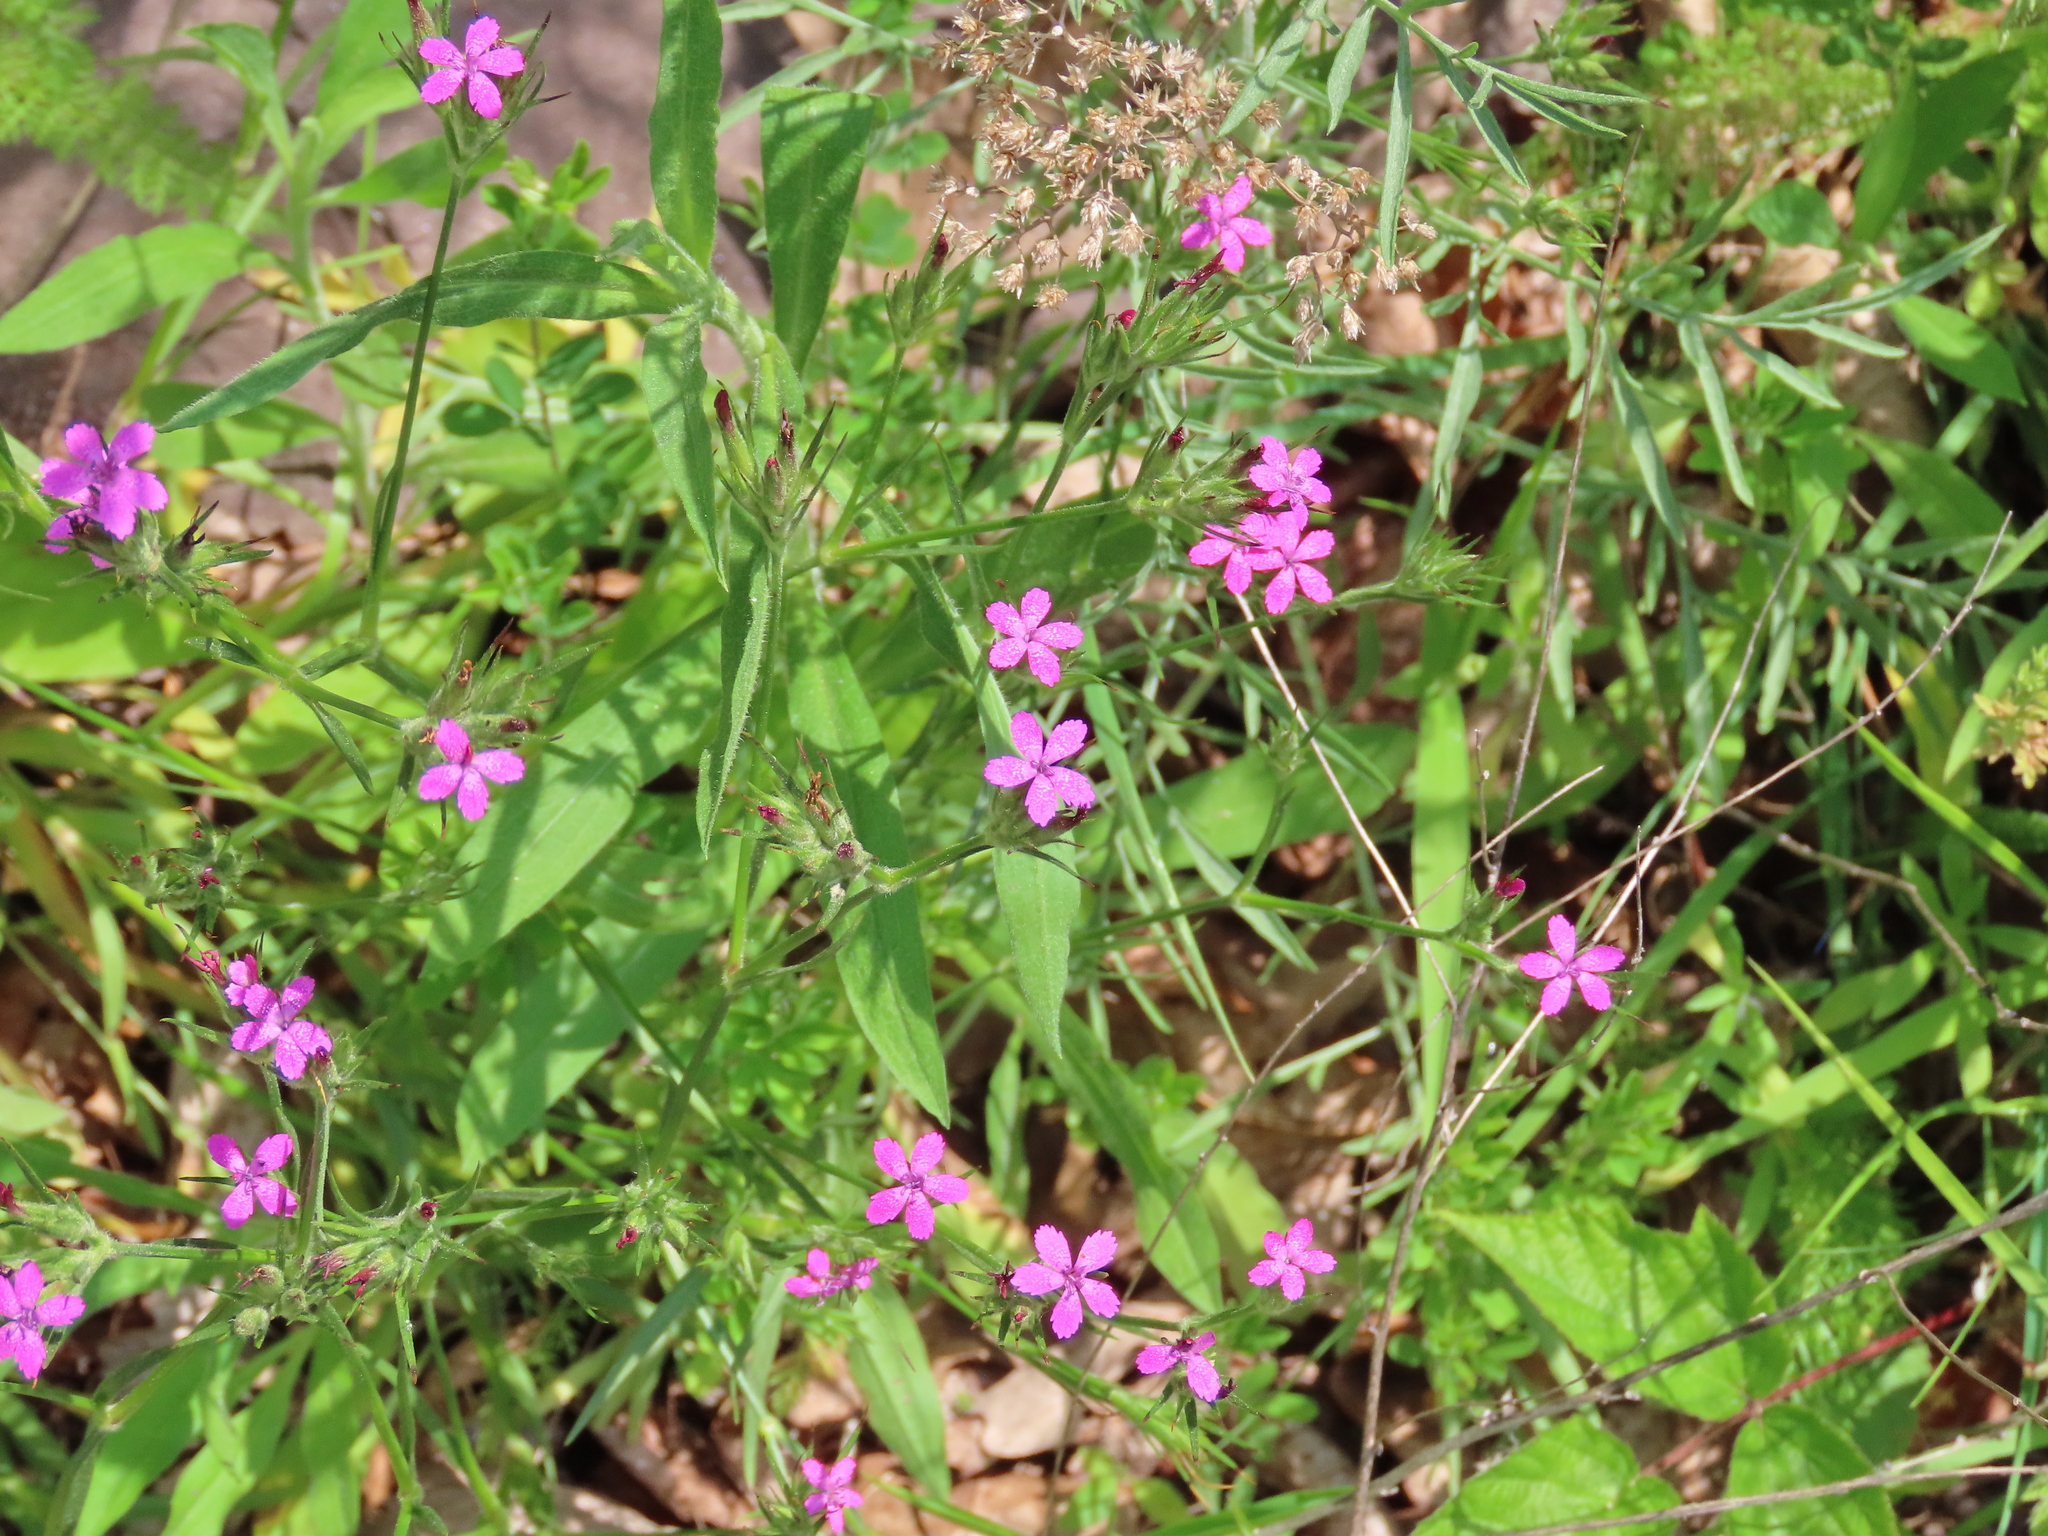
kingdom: Plantae
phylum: Tracheophyta
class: Magnoliopsida
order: Caryophyllales
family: Caryophyllaceae
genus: Dianthus
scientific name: Dianthus armeria
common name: Deptford pink
